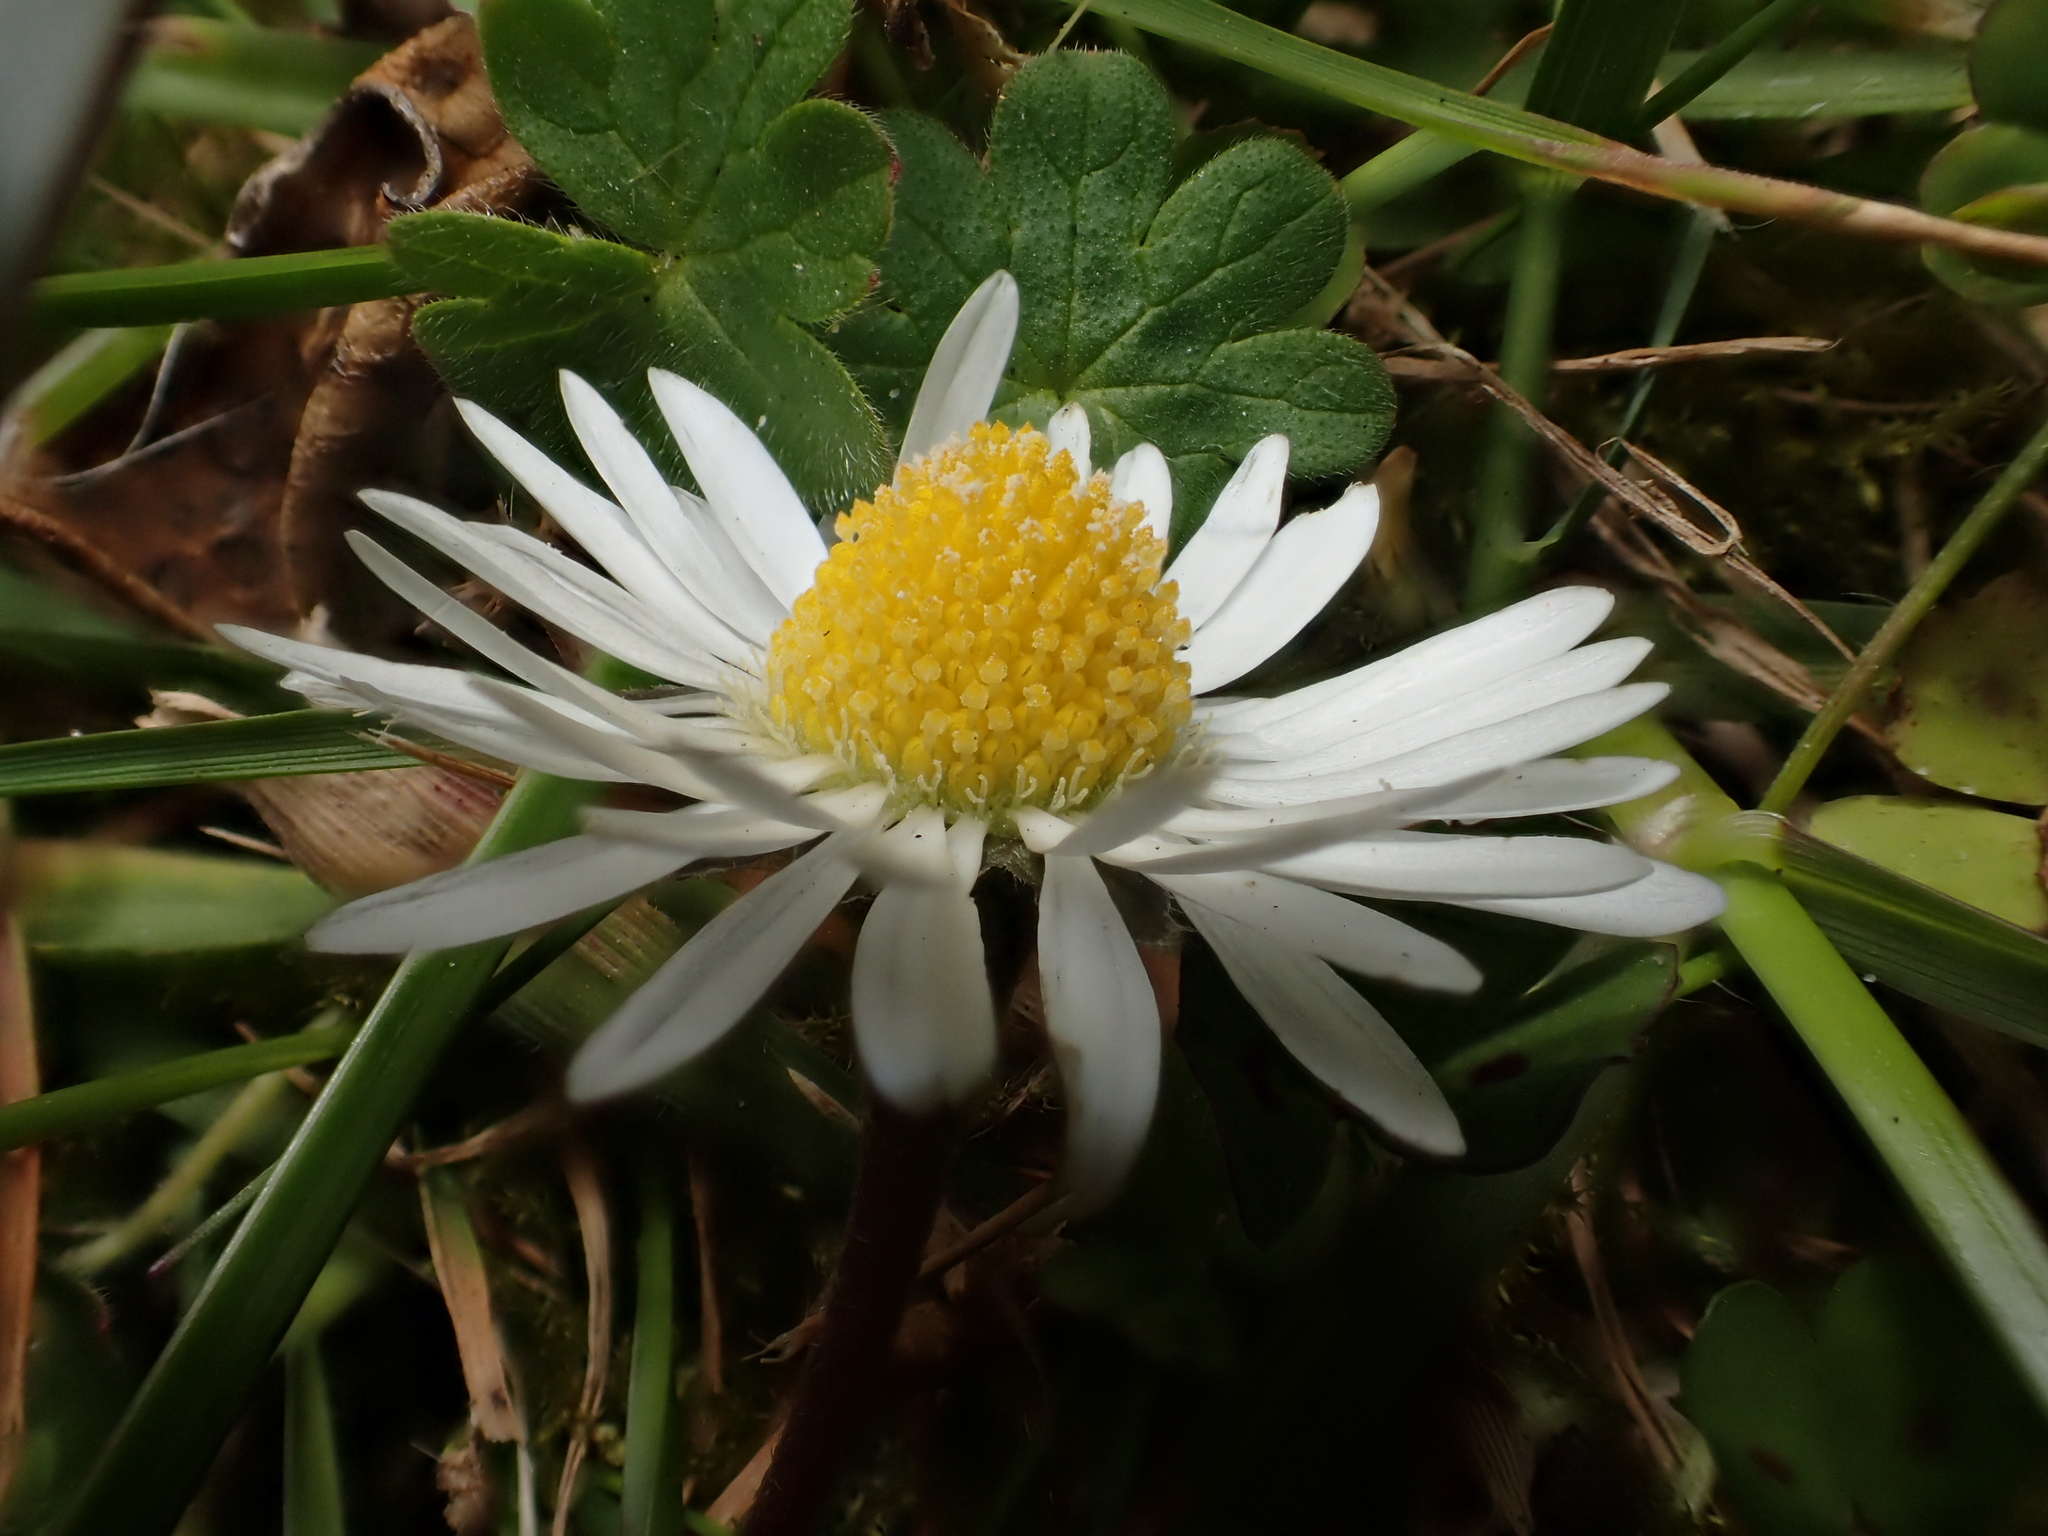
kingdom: Plantae
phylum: Tracheophyta
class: Magnoliopsida
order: Asterales
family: Asteraceae
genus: Bellis
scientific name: Bellis perennis
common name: Lawndaisy
